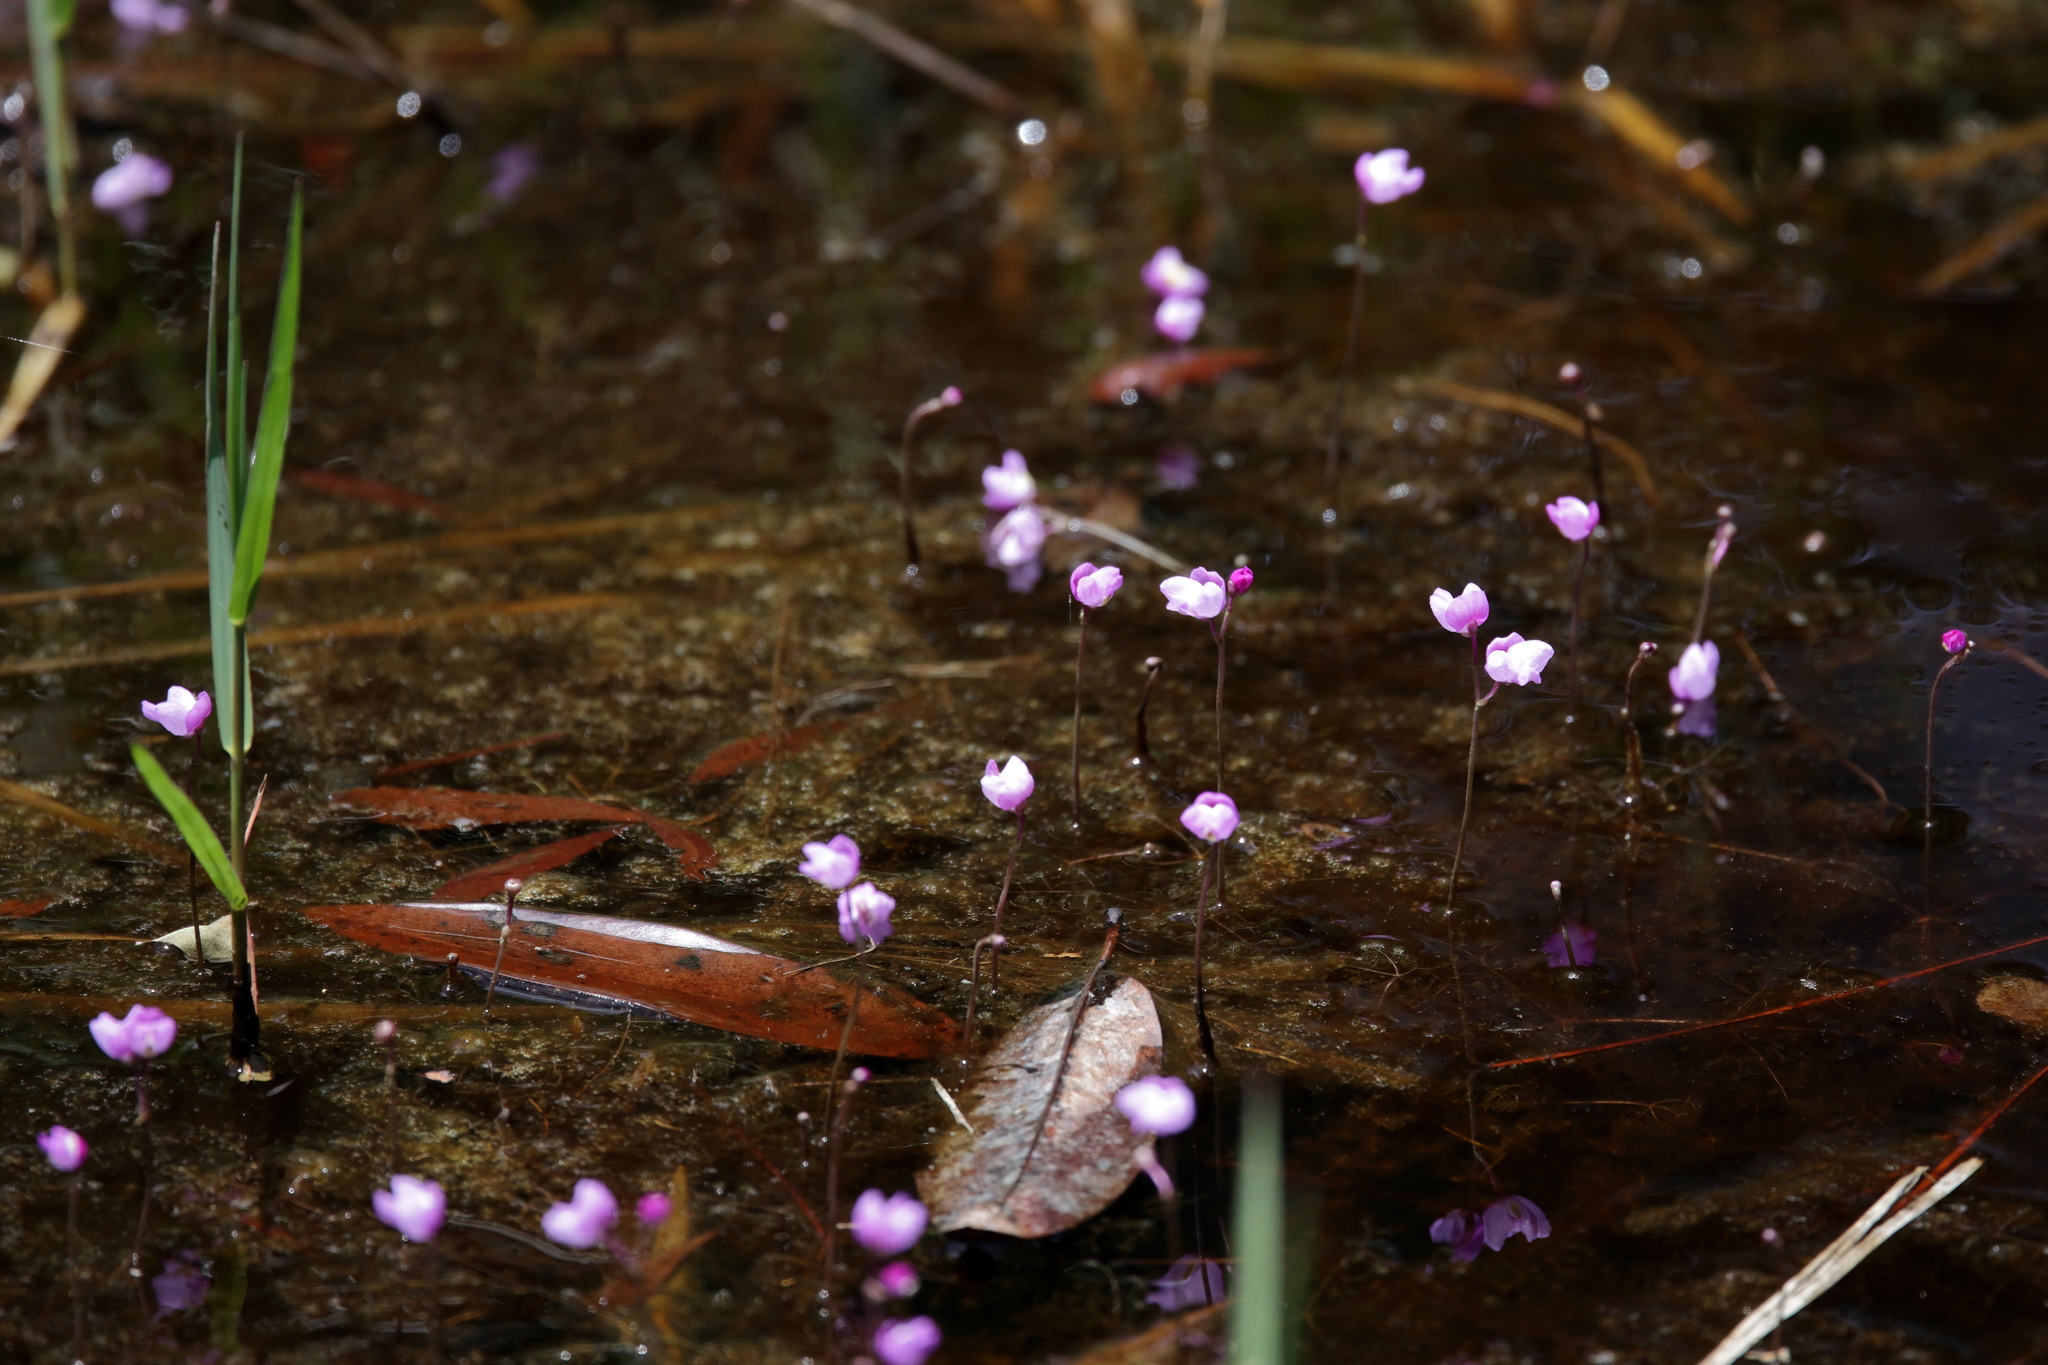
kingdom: Plantae
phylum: Tracheophyta
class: Magnoliopsida
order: Lamiales
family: Lentibulariaceae
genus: Utricularia
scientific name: Utricularia purpurea
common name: Eastern purple bladderwort
